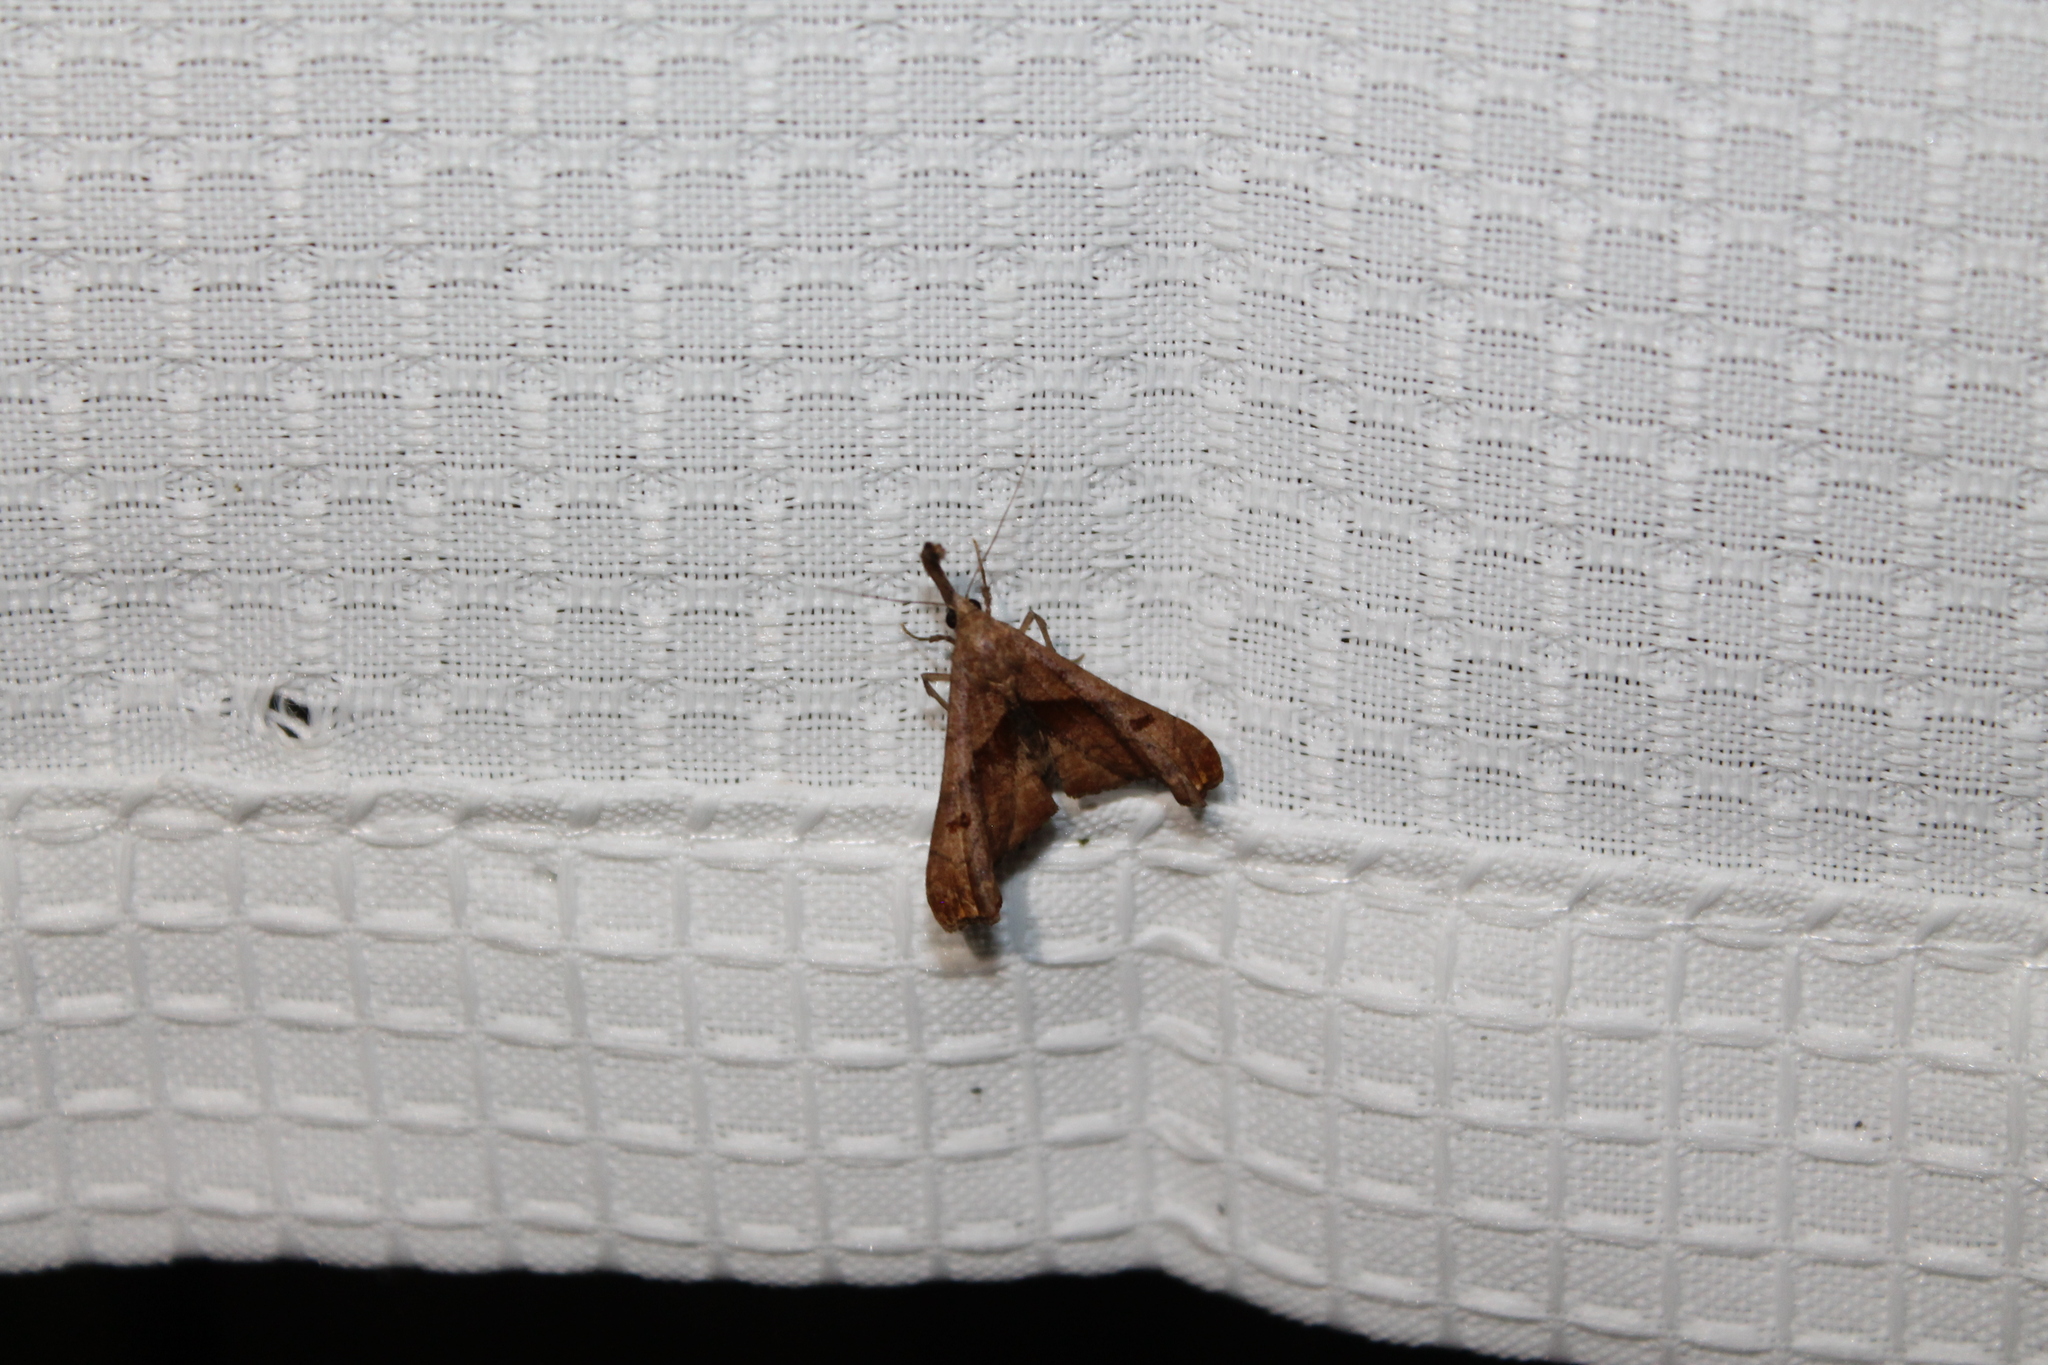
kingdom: Animalia
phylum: Arthropoda
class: Insecta
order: Lepidoptera
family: Erebidae
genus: Palthis
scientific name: Palthis angulalis
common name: Dark-spotted palthis moth
